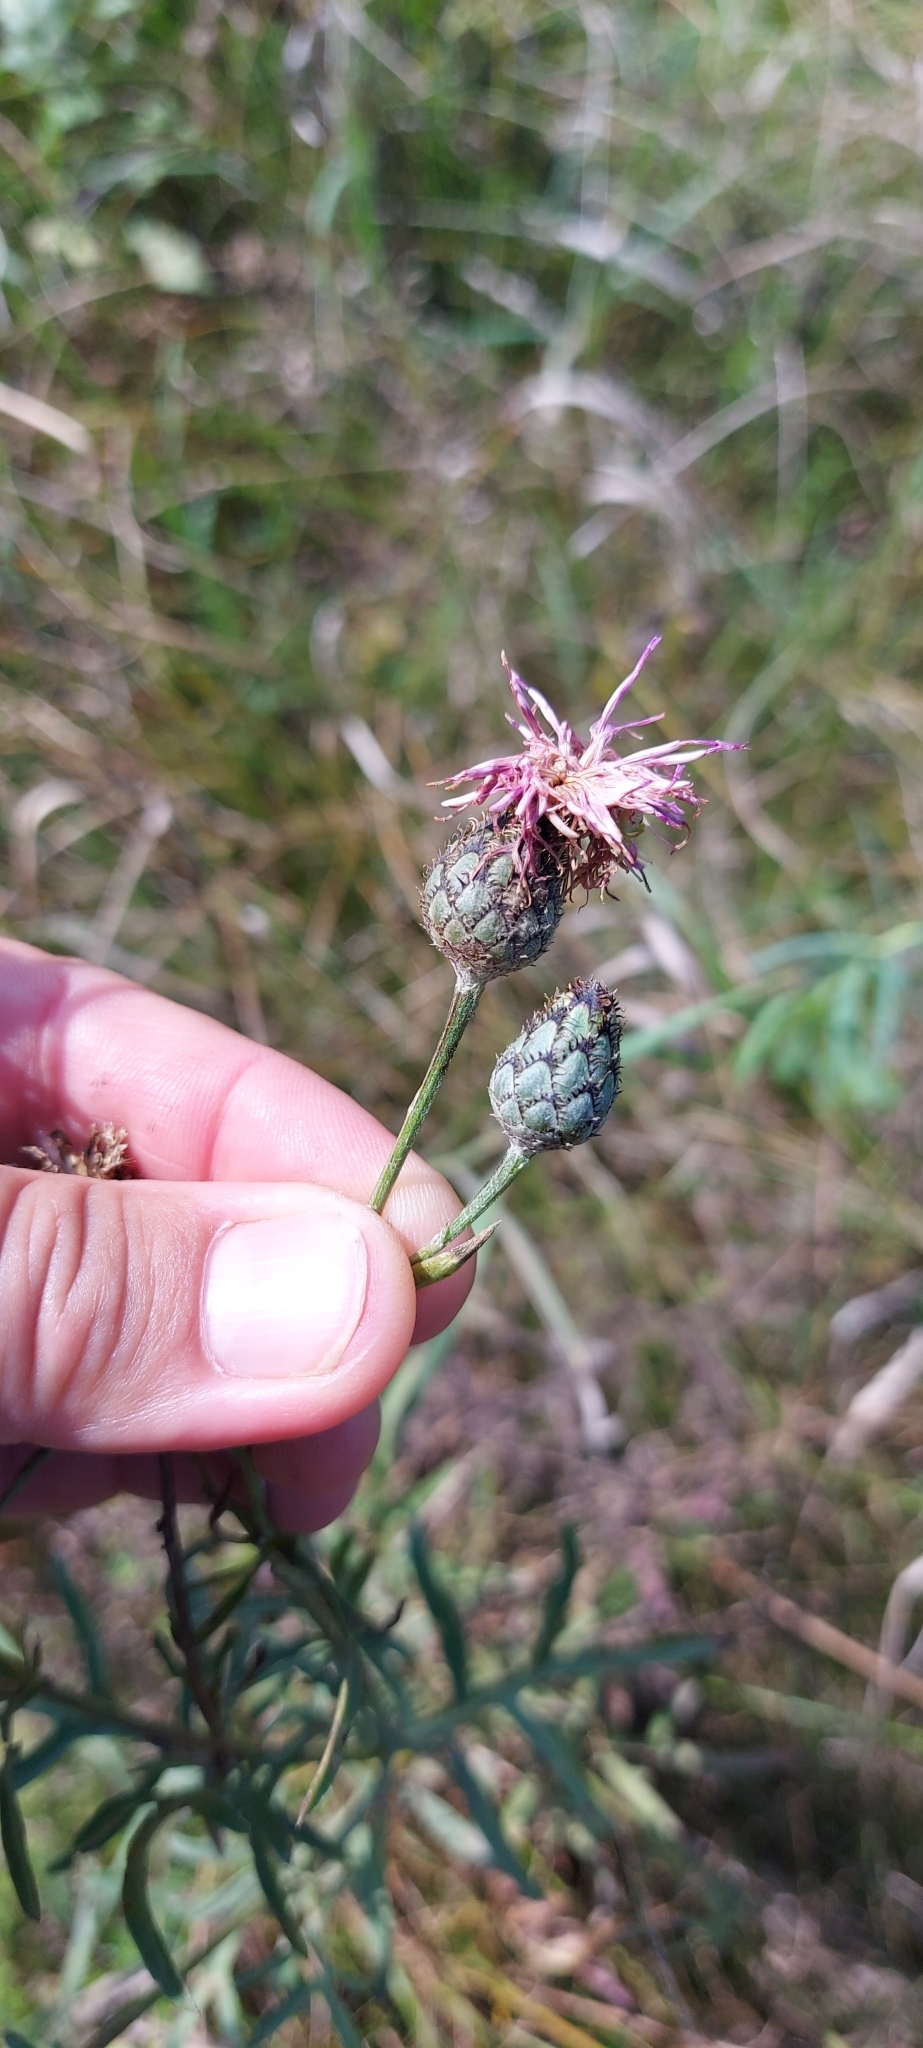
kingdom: Plantae
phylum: Tracheophyta
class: Magnoliopsida
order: Asterales
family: Asteraceae
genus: Centaurea
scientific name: Centaurea scabiosa
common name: Greater knapweed
